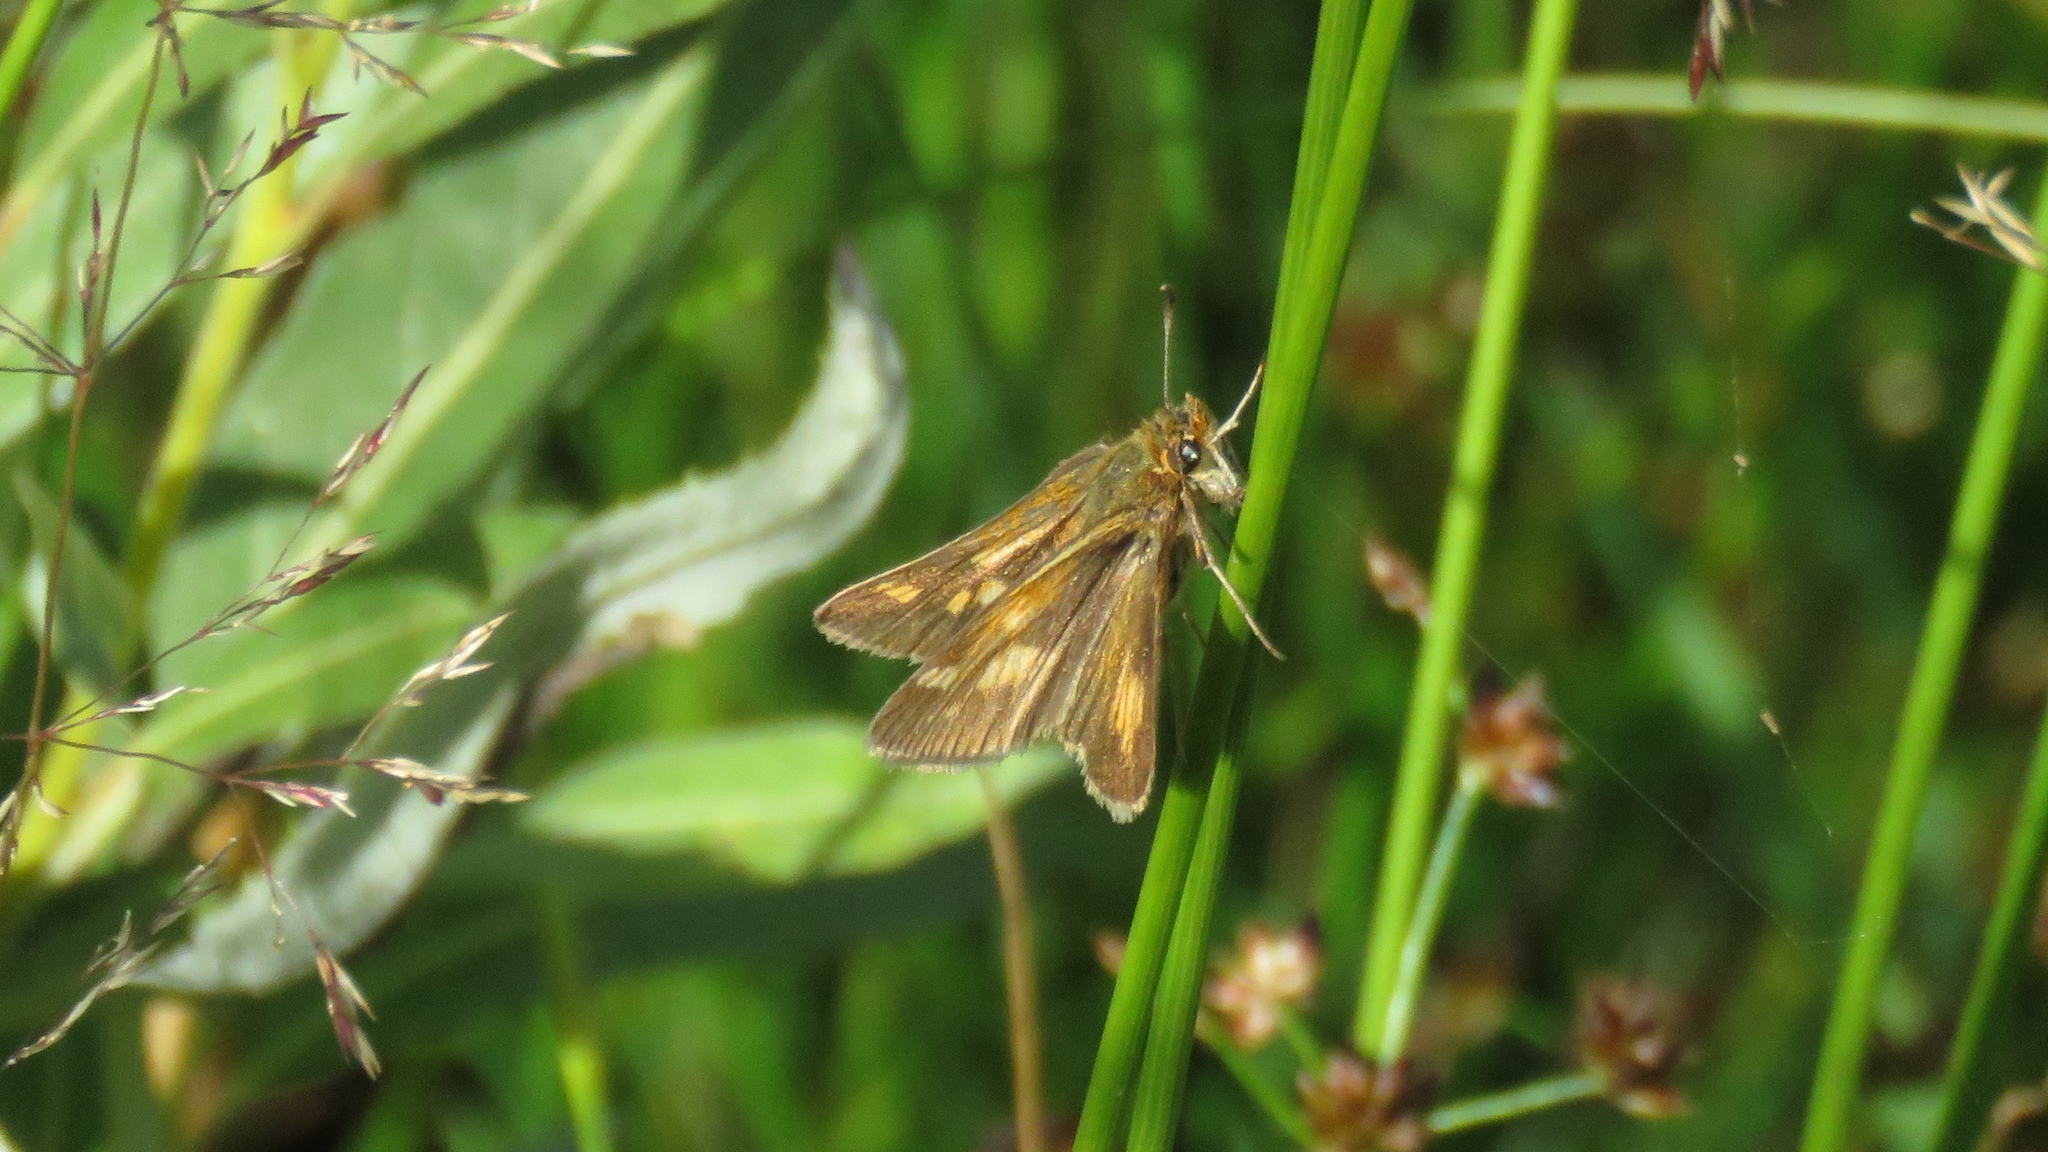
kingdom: Animalia
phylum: Arthropoda
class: Insecta
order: Lepidoptera
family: Hesperiidae
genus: Polites
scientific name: Polites coras
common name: Peck's skipper
